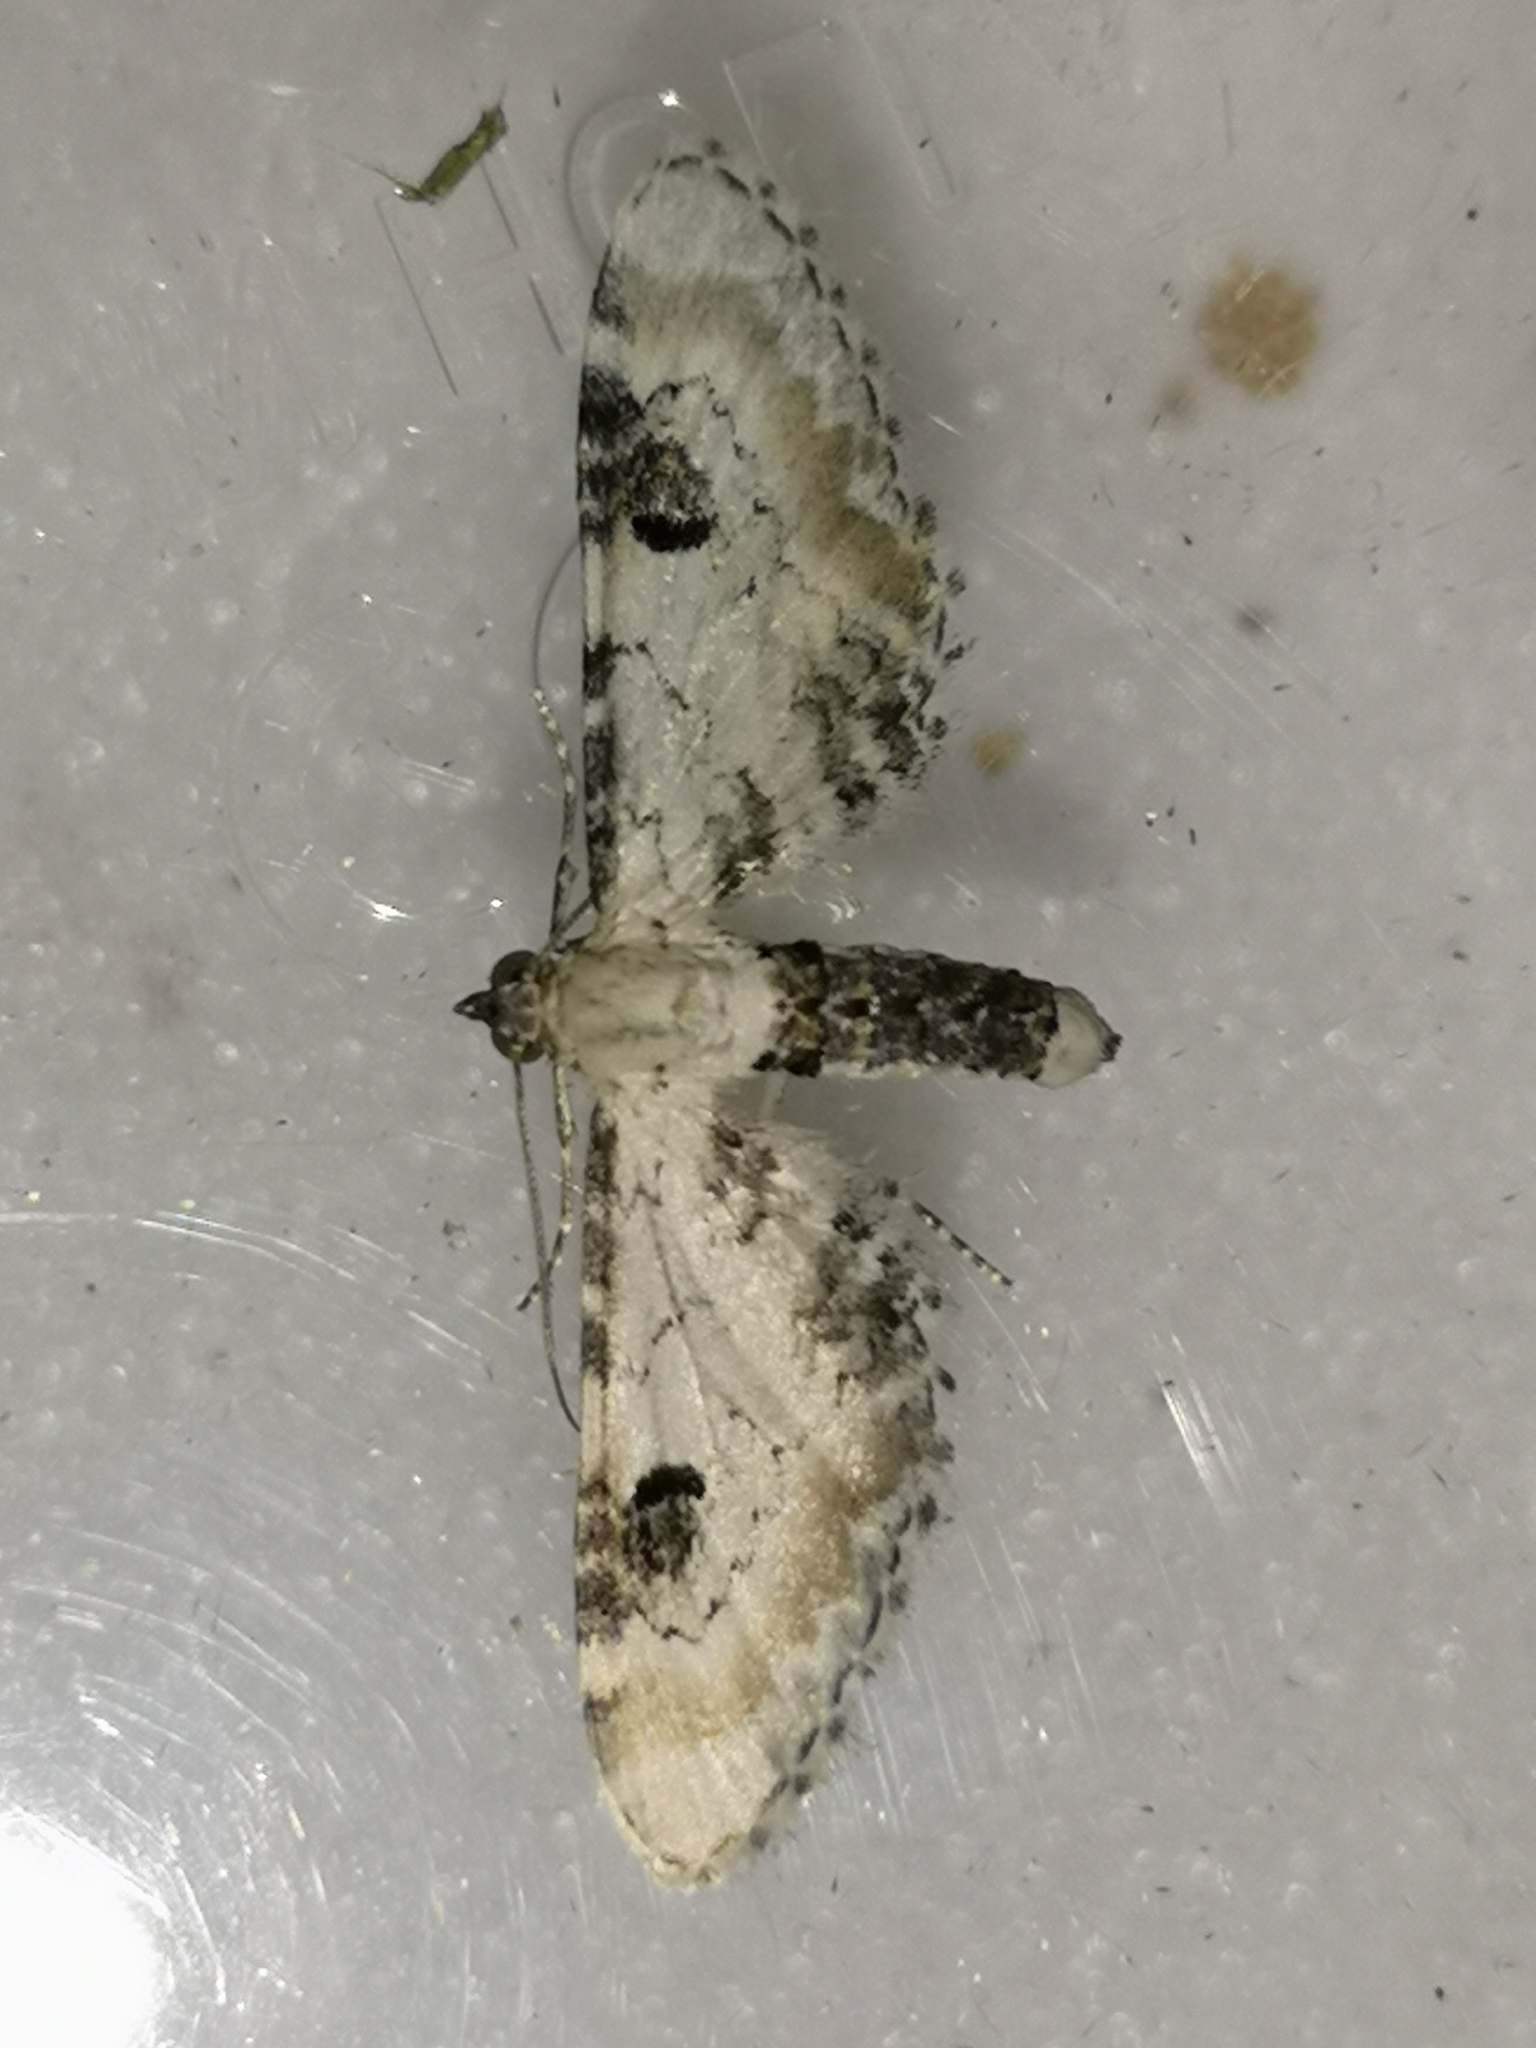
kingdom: Animalia
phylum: Arthropoda
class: Insecta
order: Lepidoptera
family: Geometridae
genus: Eupithecia
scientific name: Eupithecia centaureata
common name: Lime-speck pug
